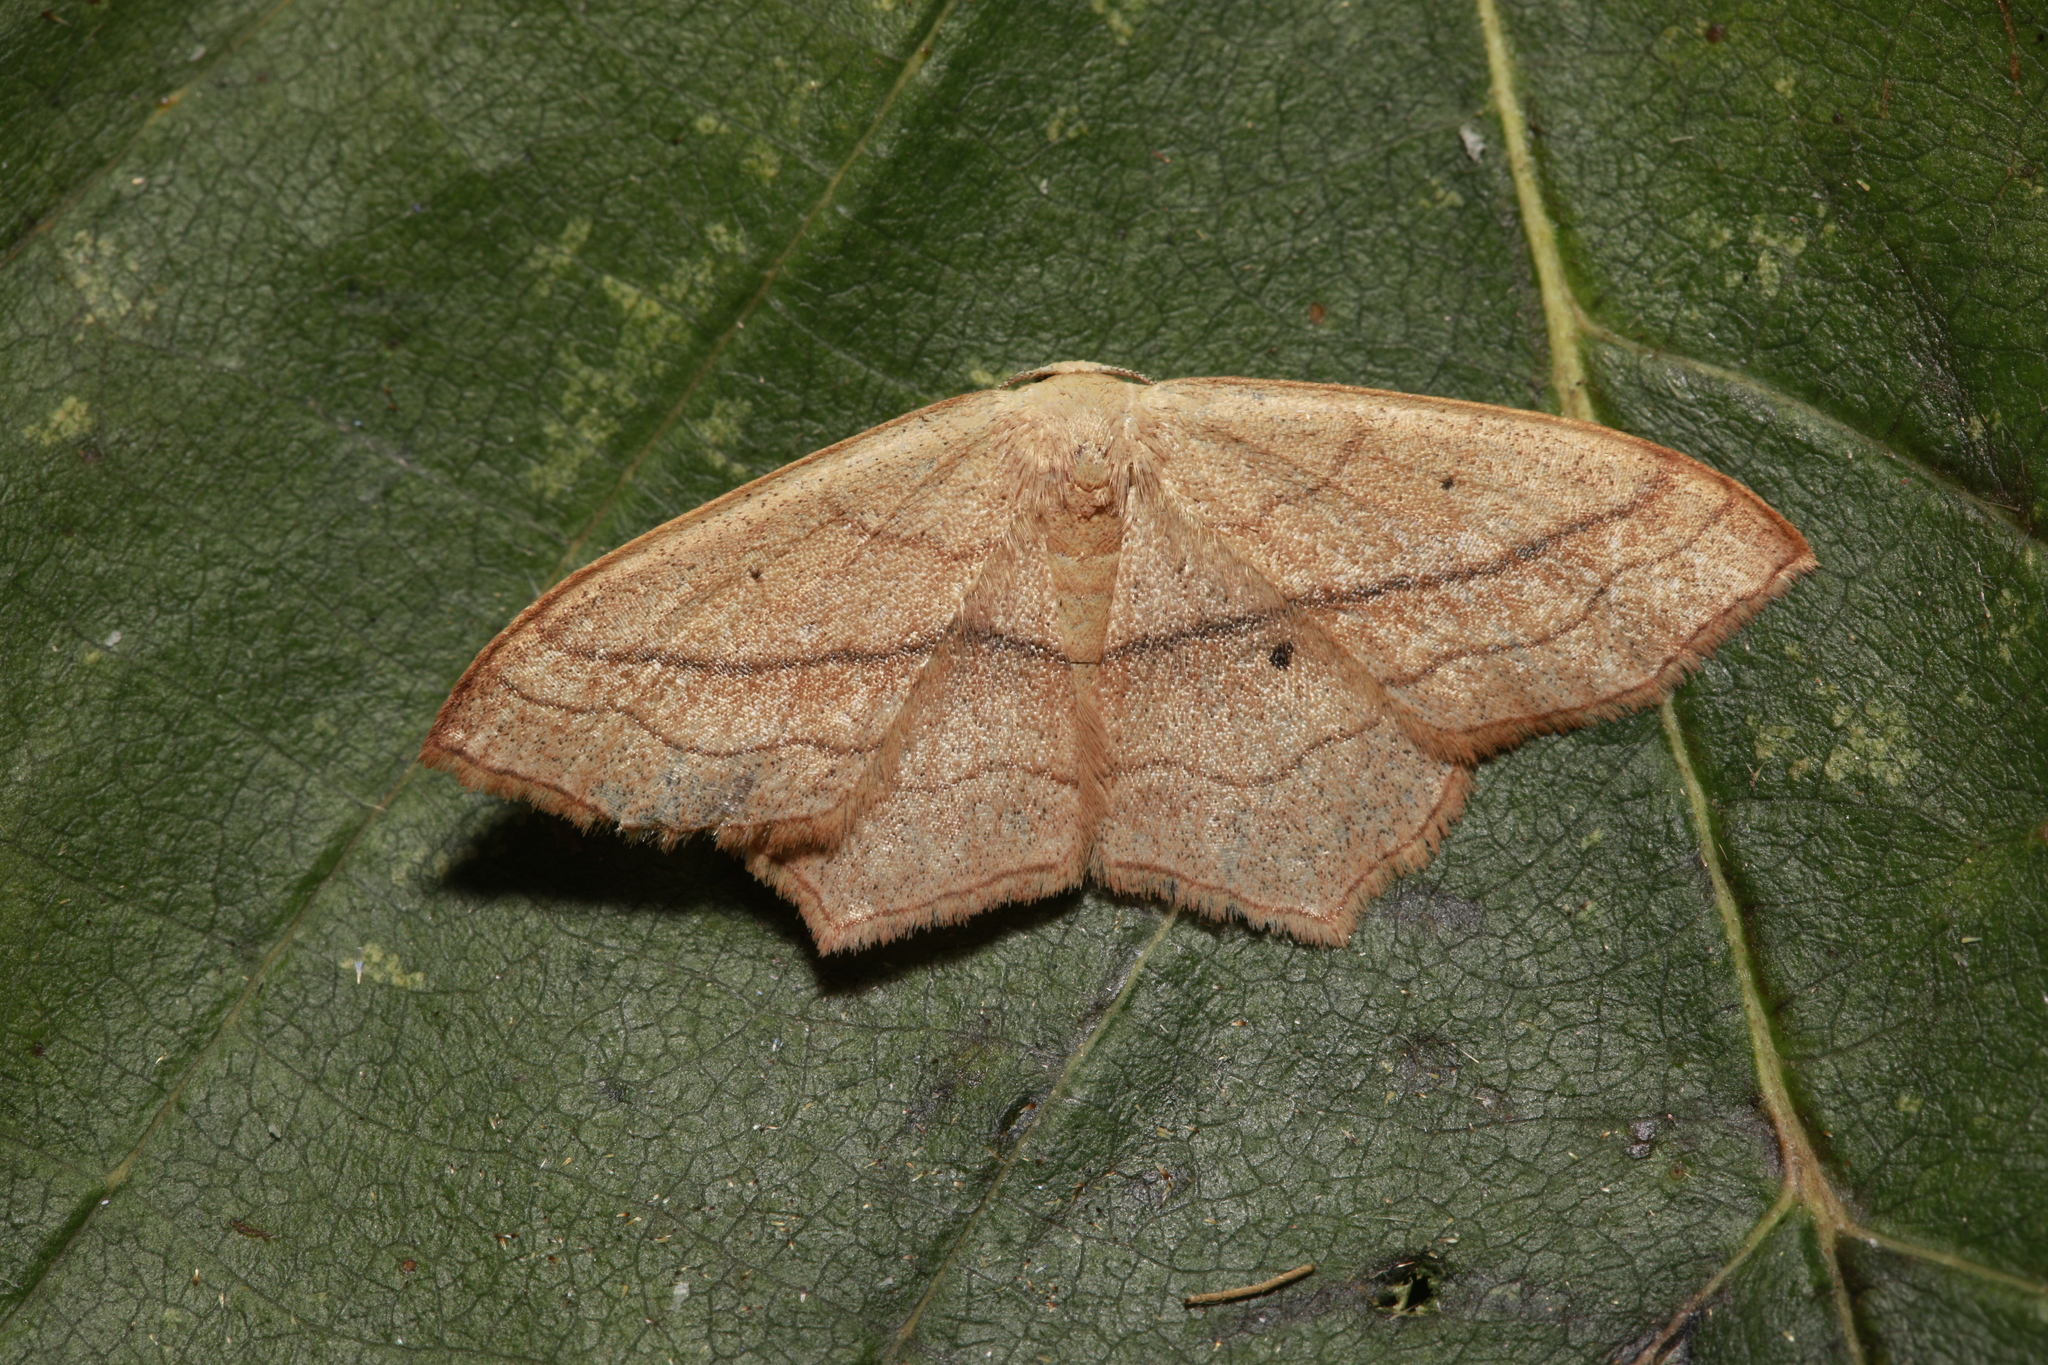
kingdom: Animalia
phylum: Arthropoda
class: Insecta
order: Lepidoptera
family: Geometridae
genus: Scopula
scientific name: Scopula imitaria
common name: Small blood-vein
